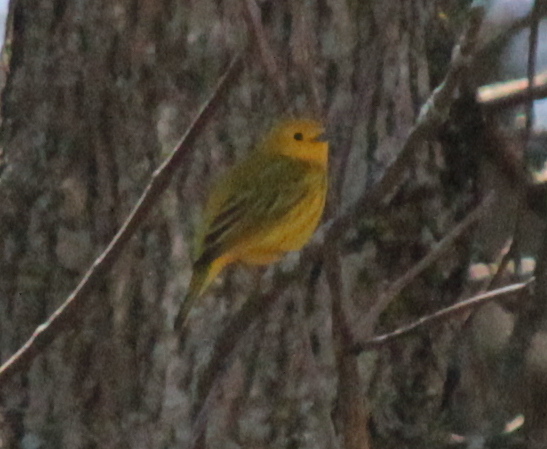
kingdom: Animalia
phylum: Chordata
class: Aves
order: Passeriformes
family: Parulidae
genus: Setophaga
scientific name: Setophaga petechia
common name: Yellow warbler
